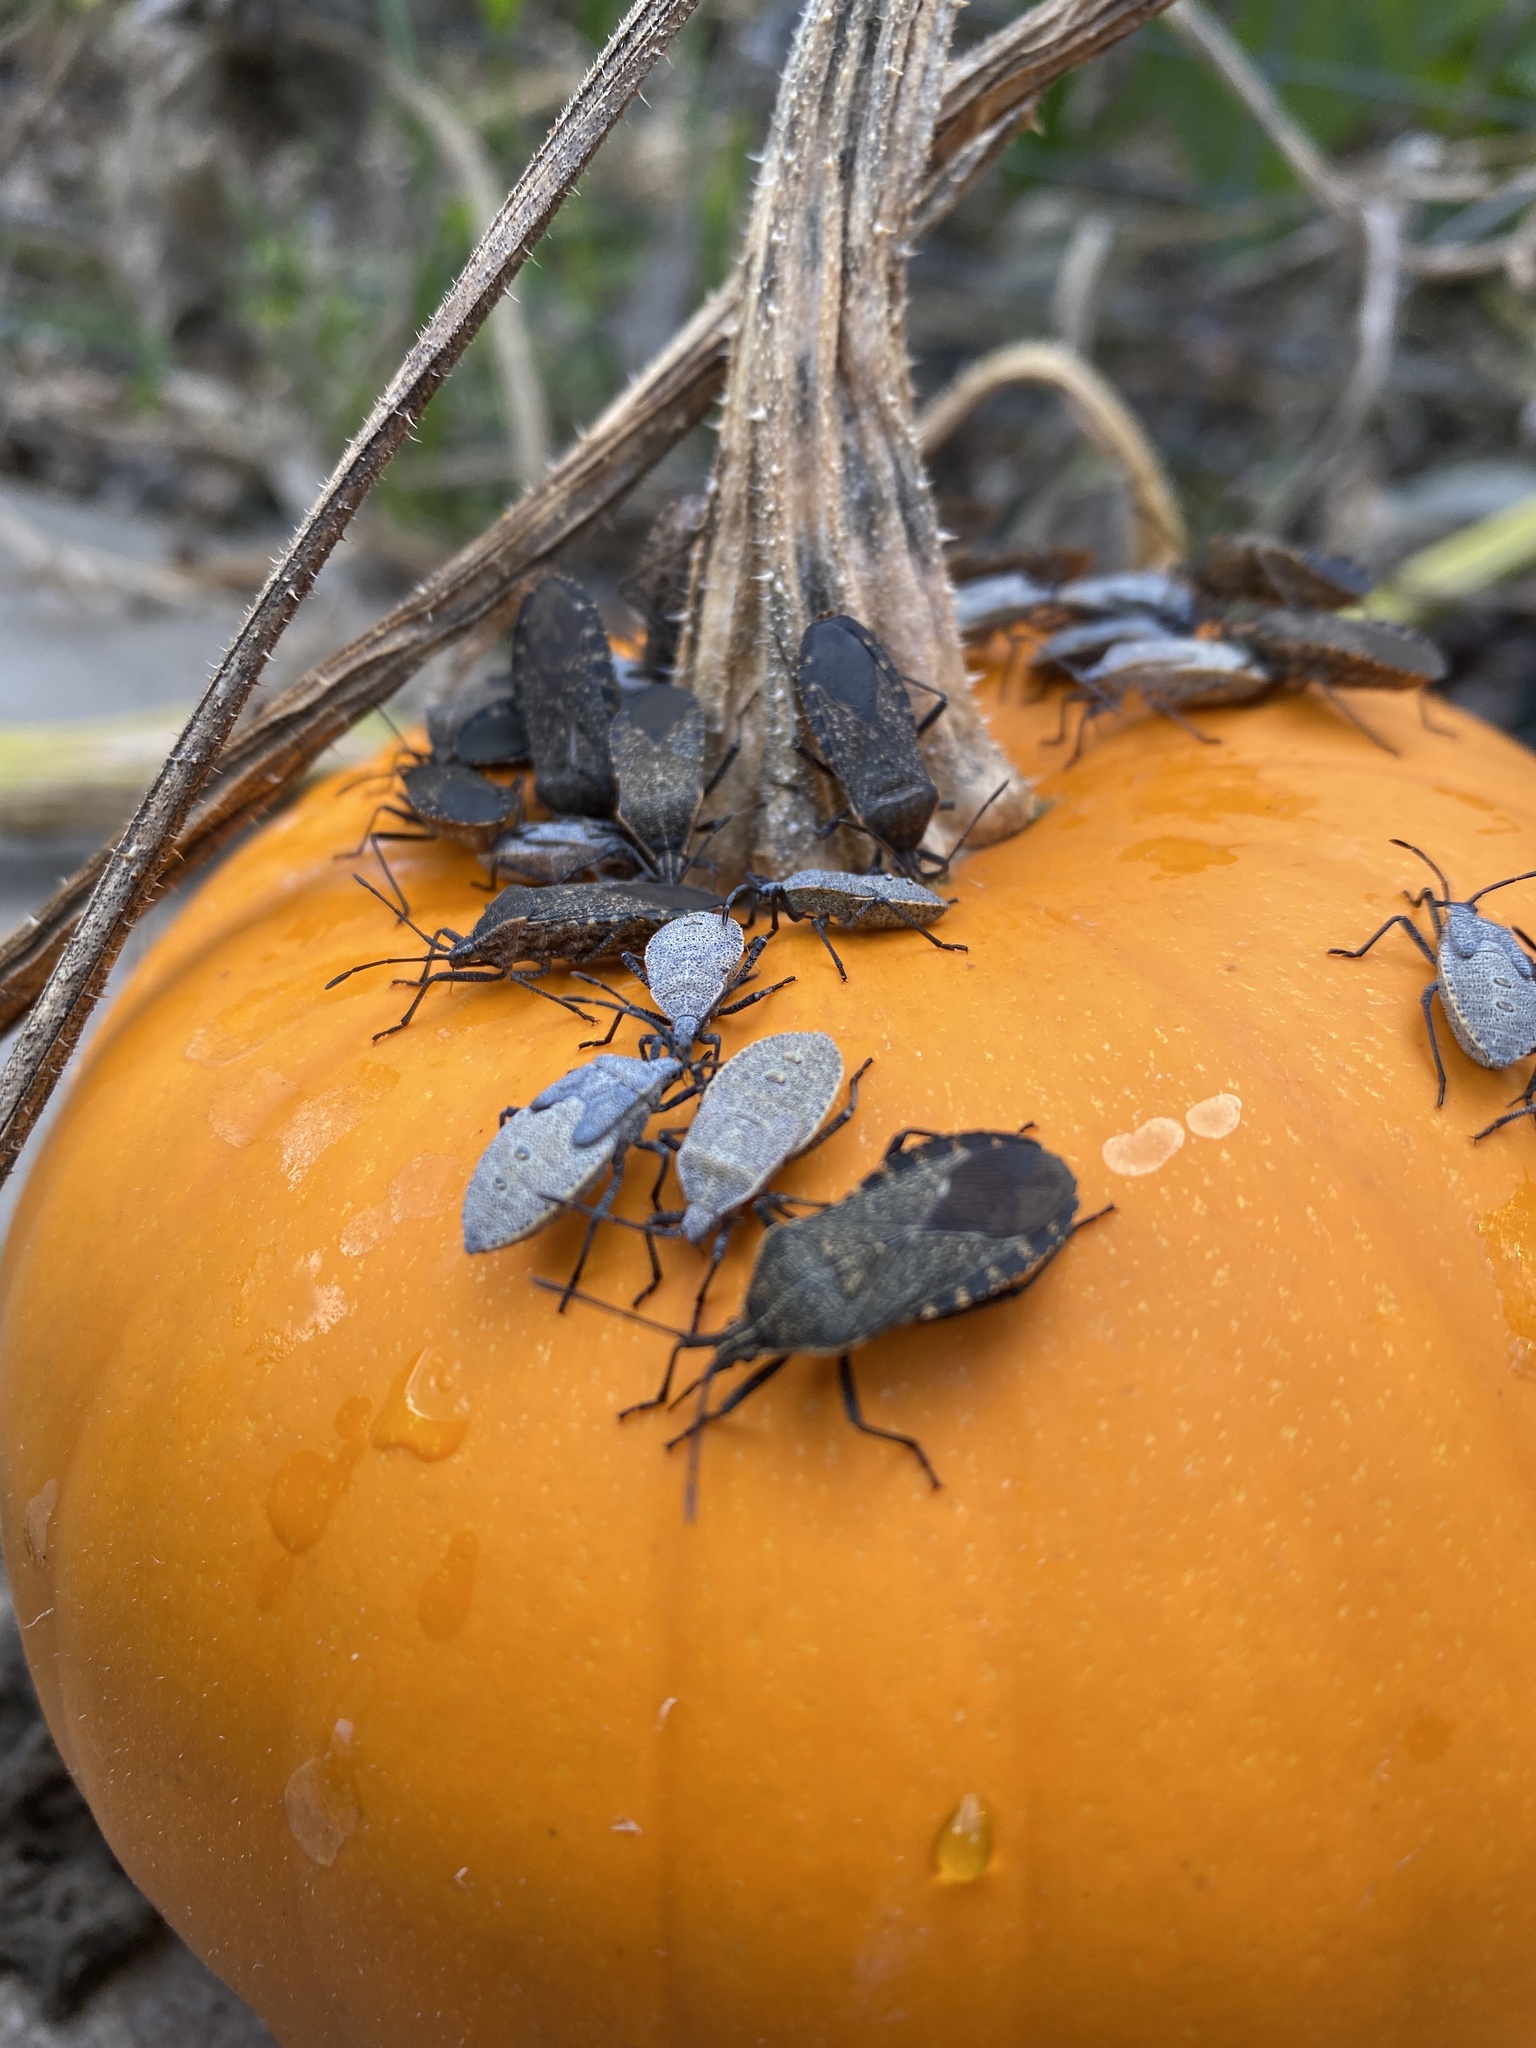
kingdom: Animalia
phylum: Arthropoda
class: Insecta
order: Hemiptera
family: Coreidae
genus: Anasa
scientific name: Anasa tristis
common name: Squash bug
